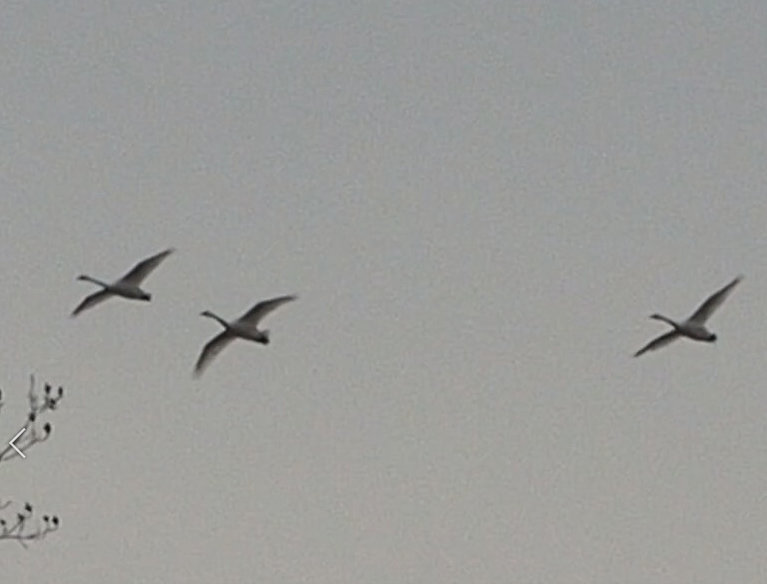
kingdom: Animalia
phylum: Chordata
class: Aves
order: Anseriformes
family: Anatidae
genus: Cygnus
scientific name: Cygnus columbianus
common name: Tundra swan
